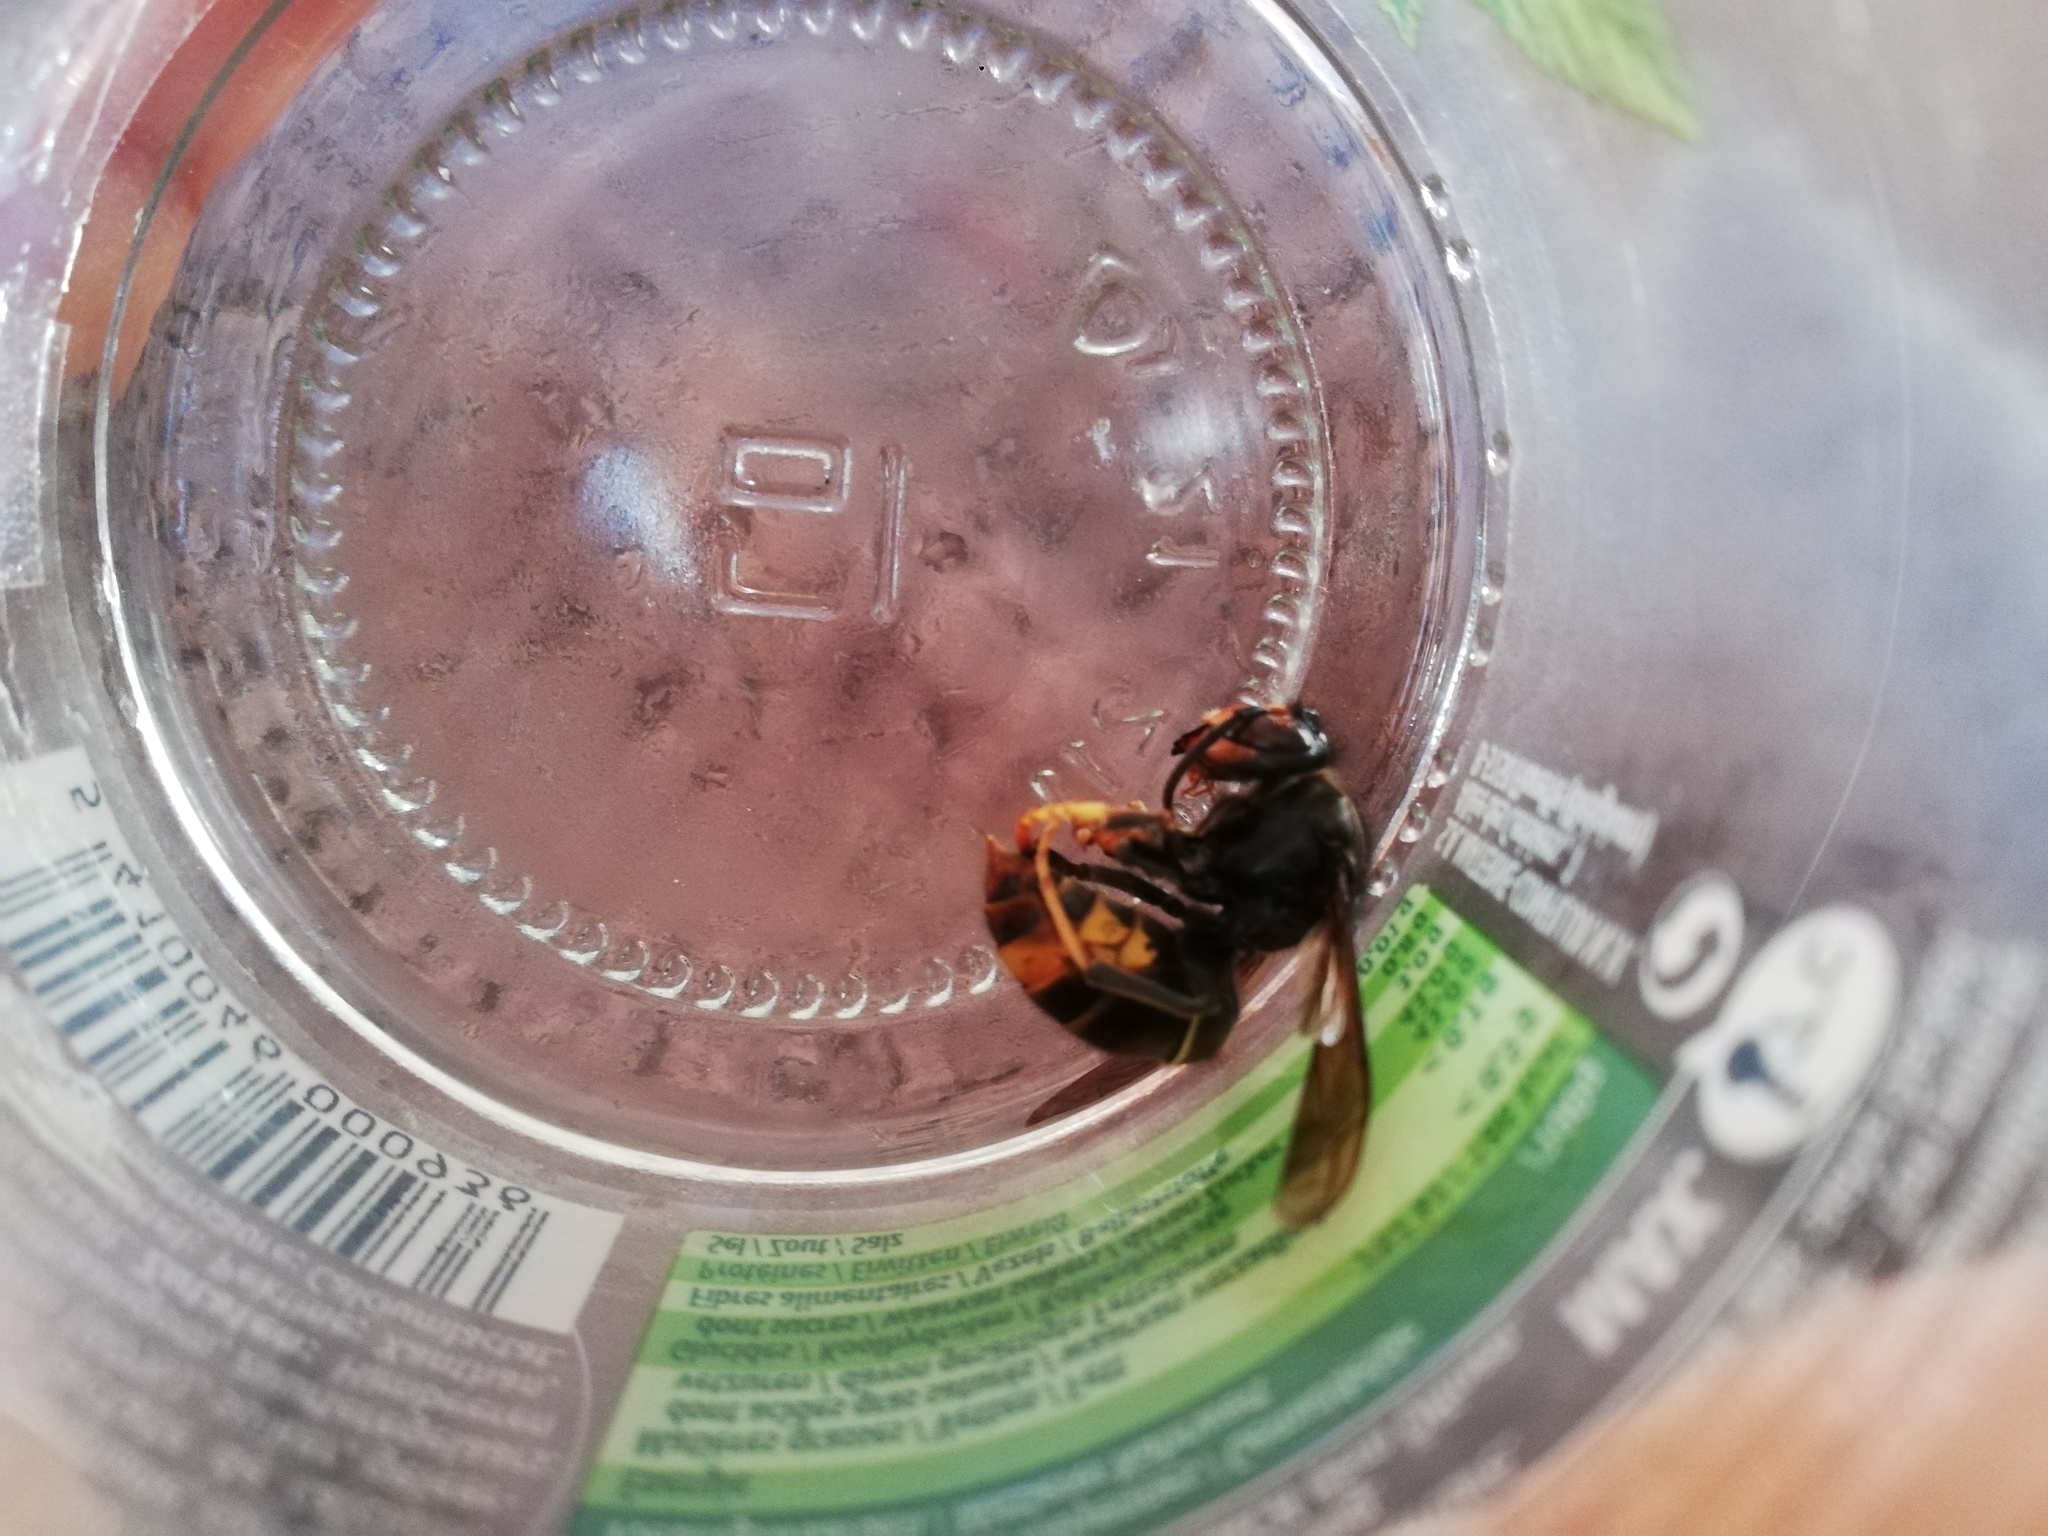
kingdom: Animalia
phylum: Arthropoda
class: Insecta
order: Hymenoptera
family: Vespidae
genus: Vespa
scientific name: Vespa velutina
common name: Asian hornet
